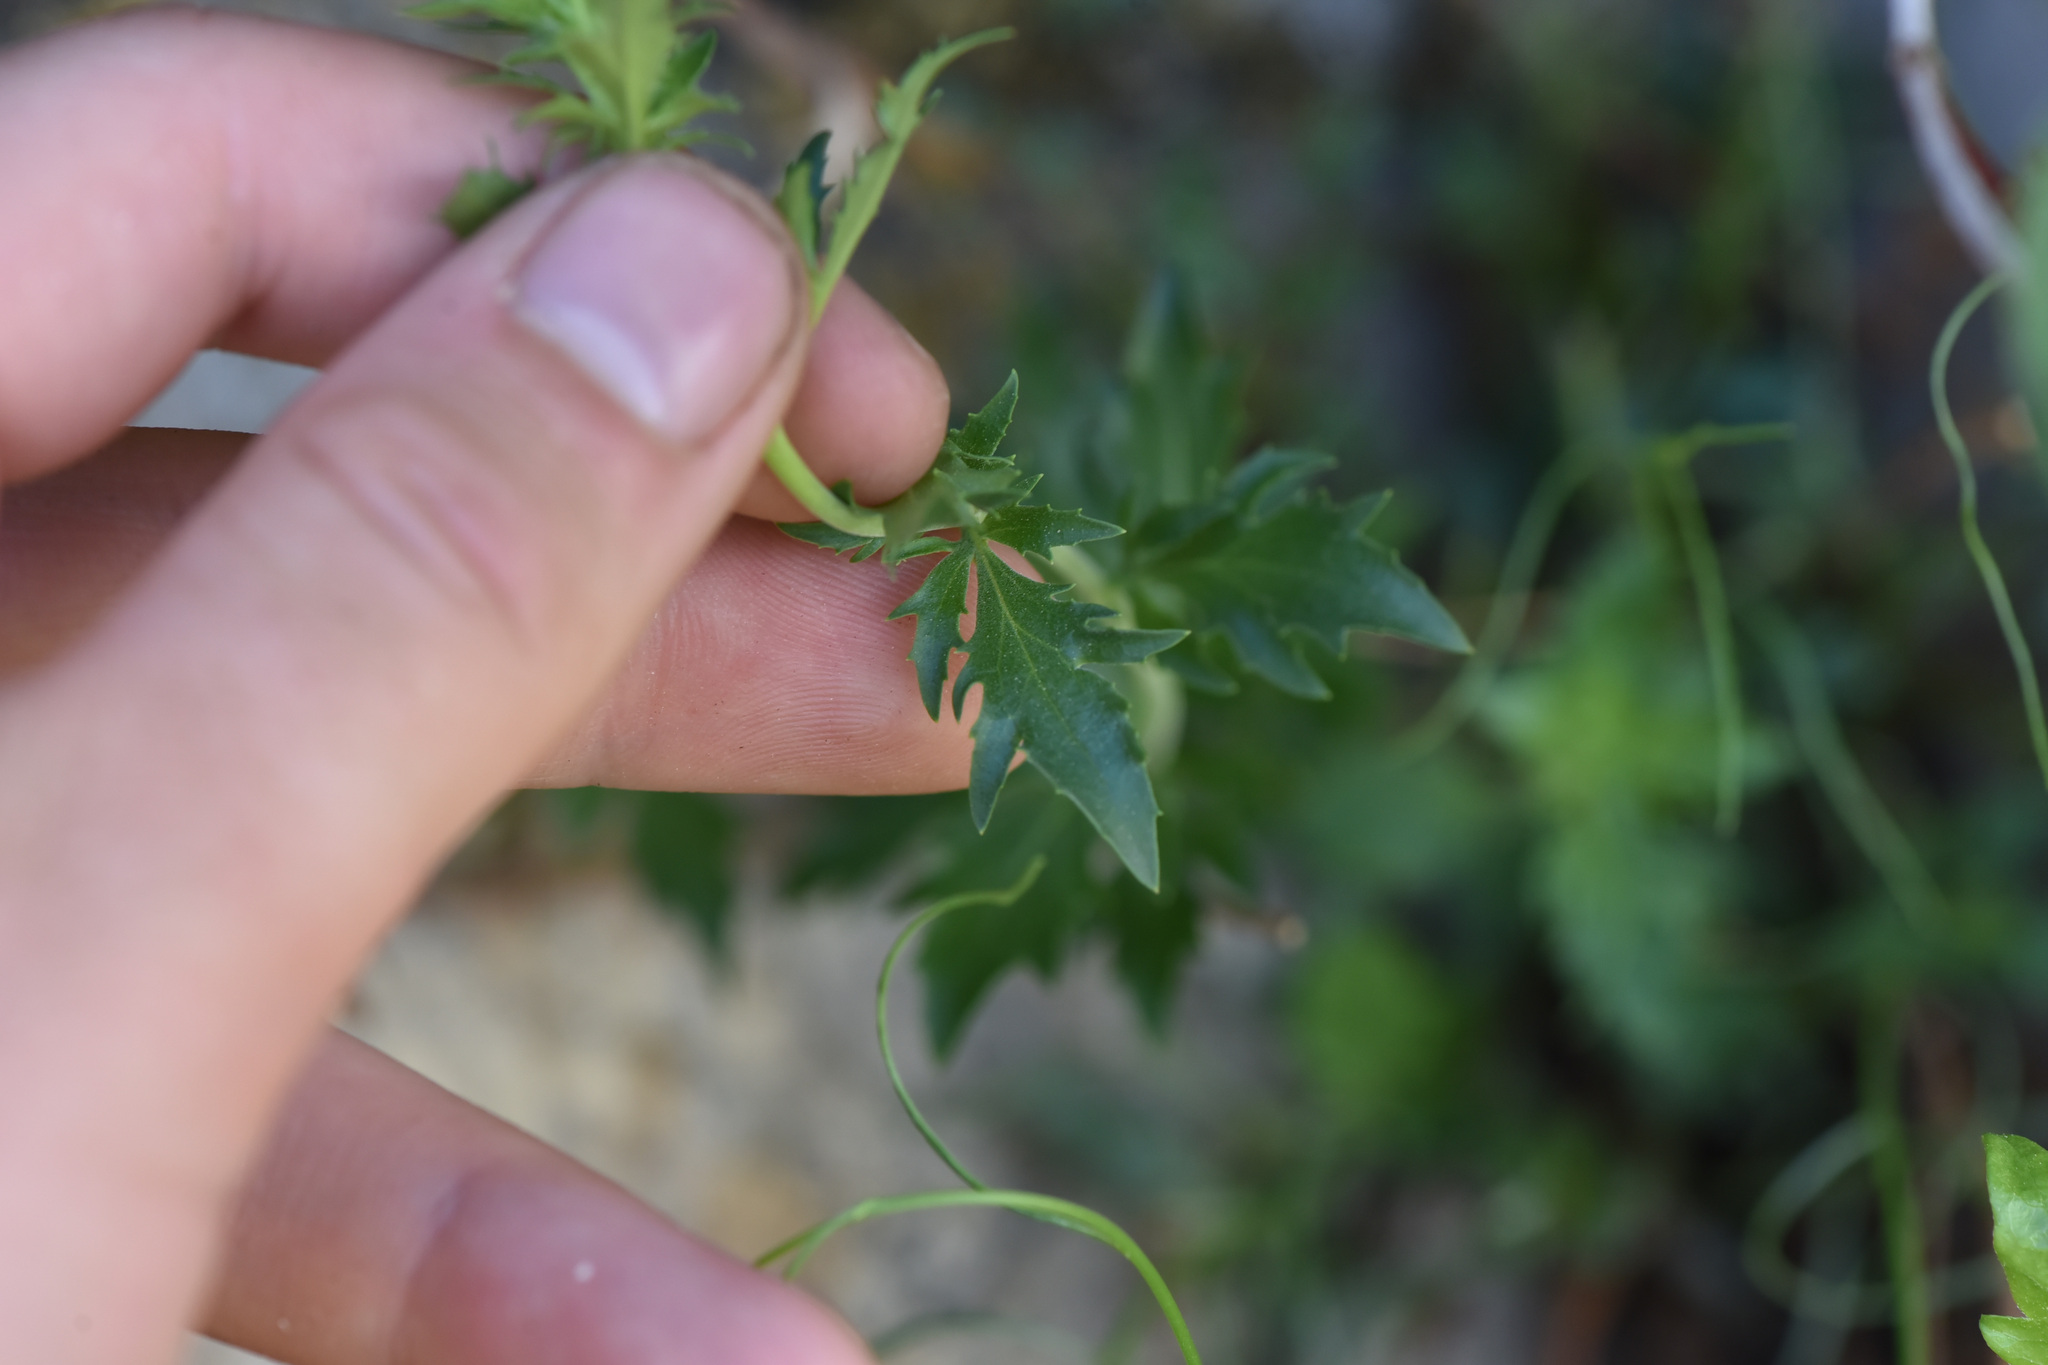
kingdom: Plantae
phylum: Tracheophyta
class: Magnoliopsida
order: Lamiales
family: Plantaginaceae
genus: Penstemon
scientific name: Penstemon richardsonii
